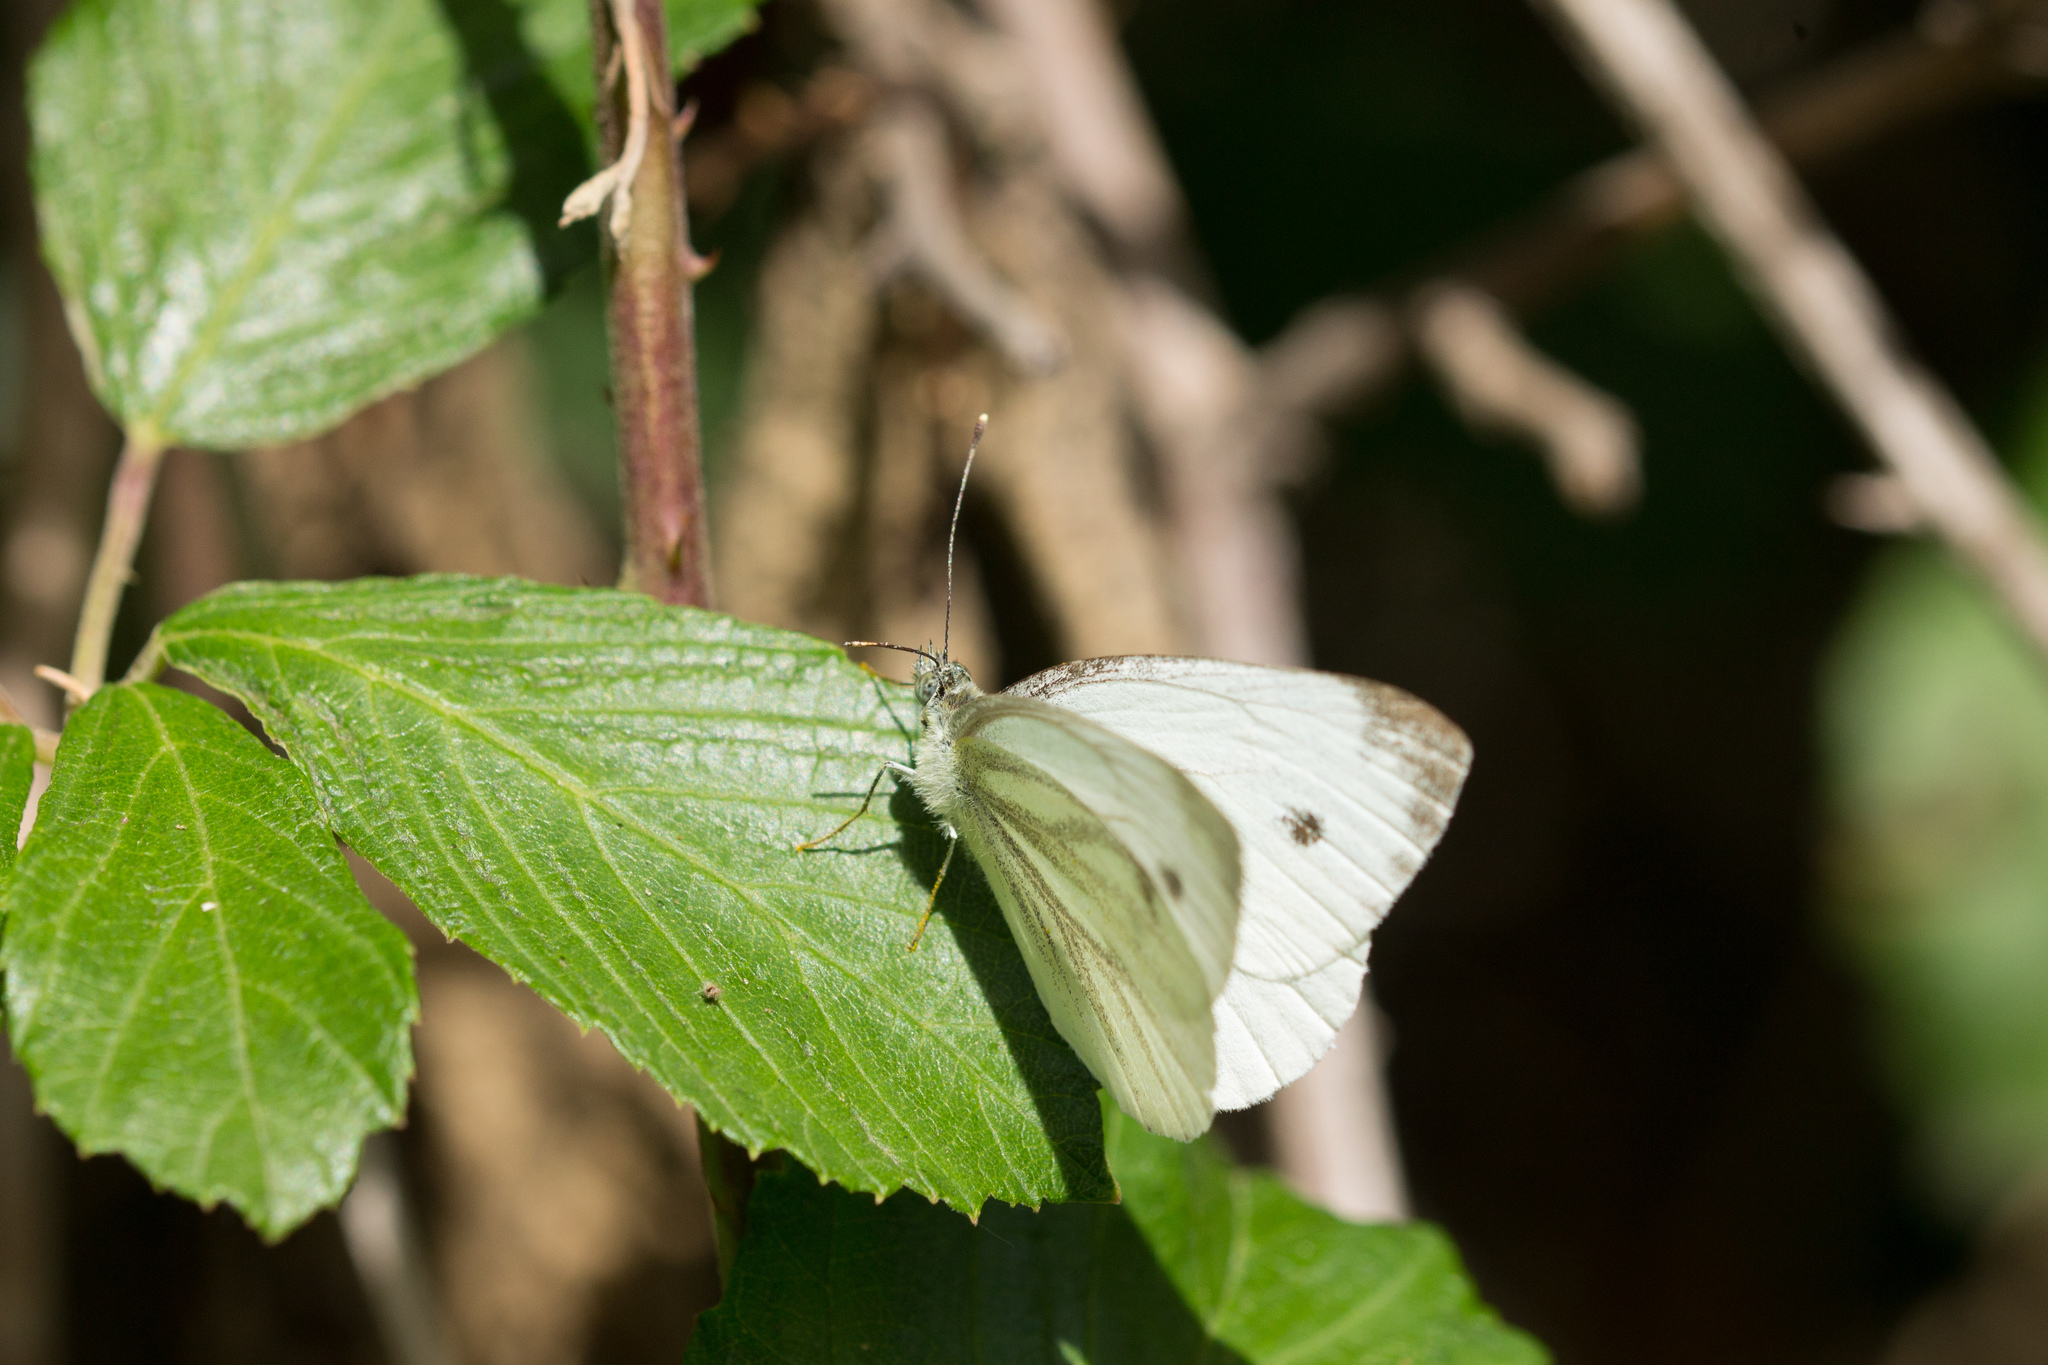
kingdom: Animalia
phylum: Arthropoda
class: Insecta
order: Lepidoptera
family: Pieridae
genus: Pieris
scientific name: Pieris napi
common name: Green-veined white
